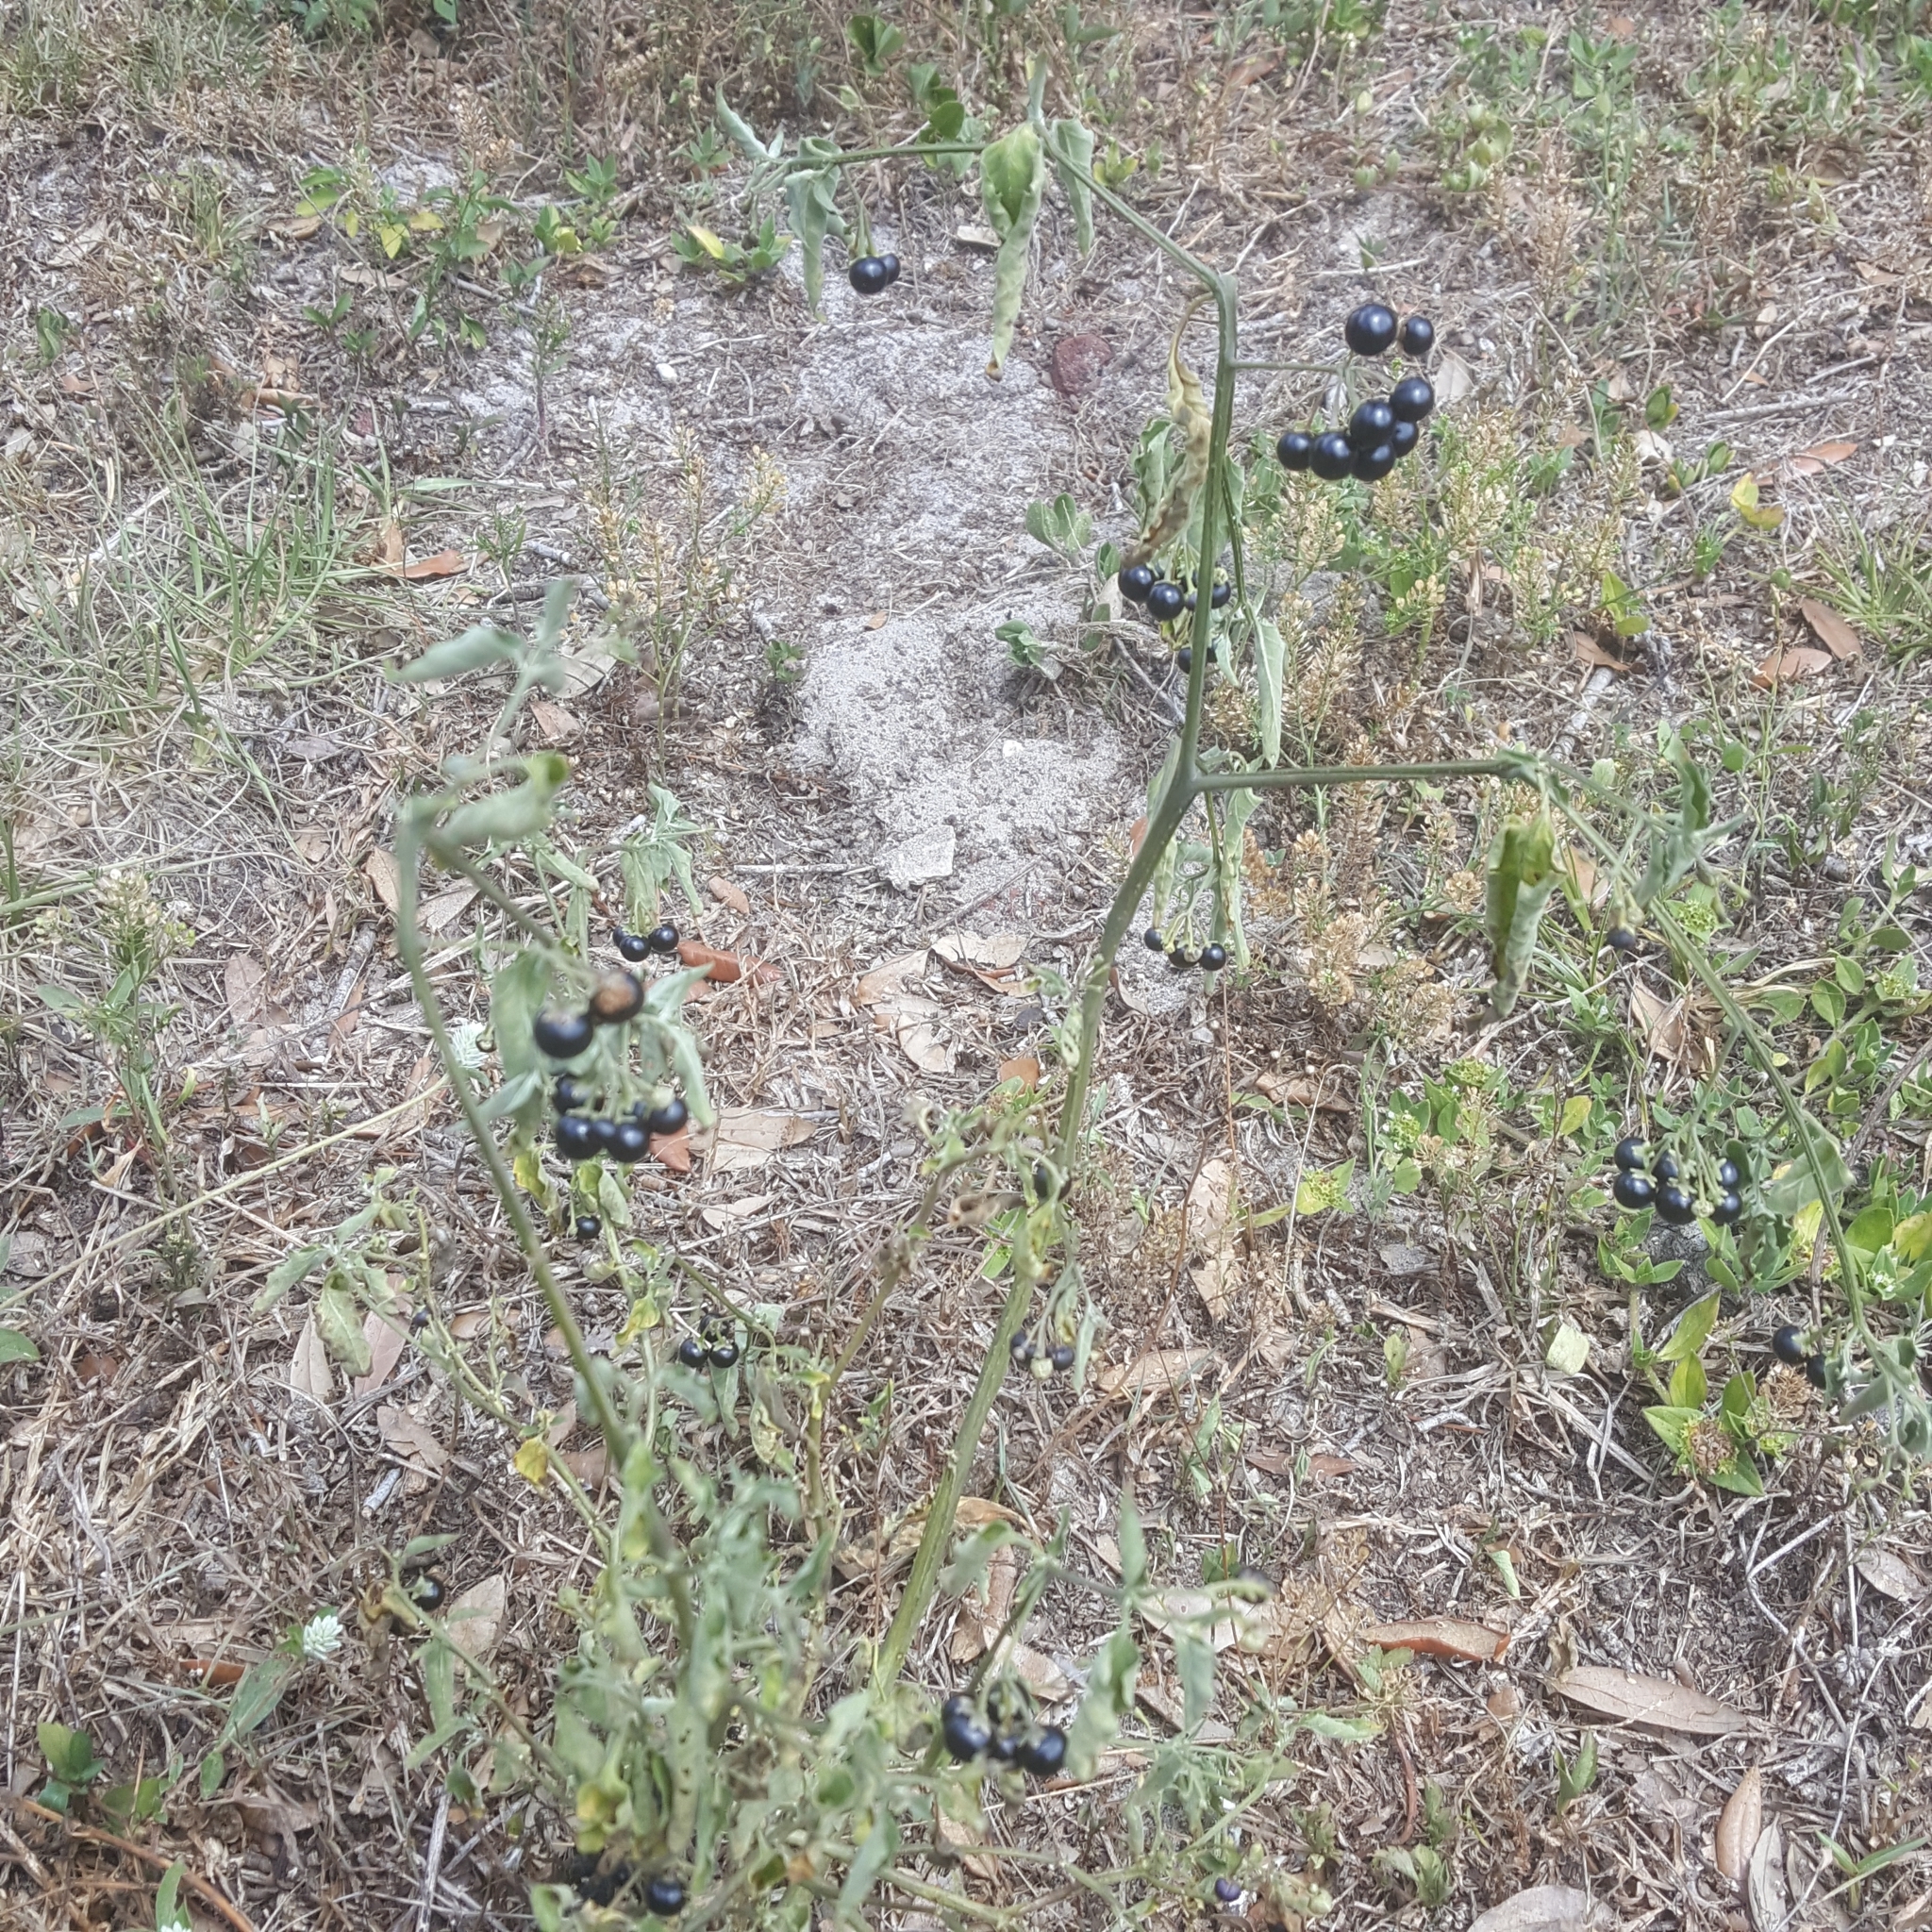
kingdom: Plantae
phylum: Tracheophyta
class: Magnoliopsida
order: Solanales
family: Solanaceae
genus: Solanum
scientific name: Solanum americanum
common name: American black nightshade
